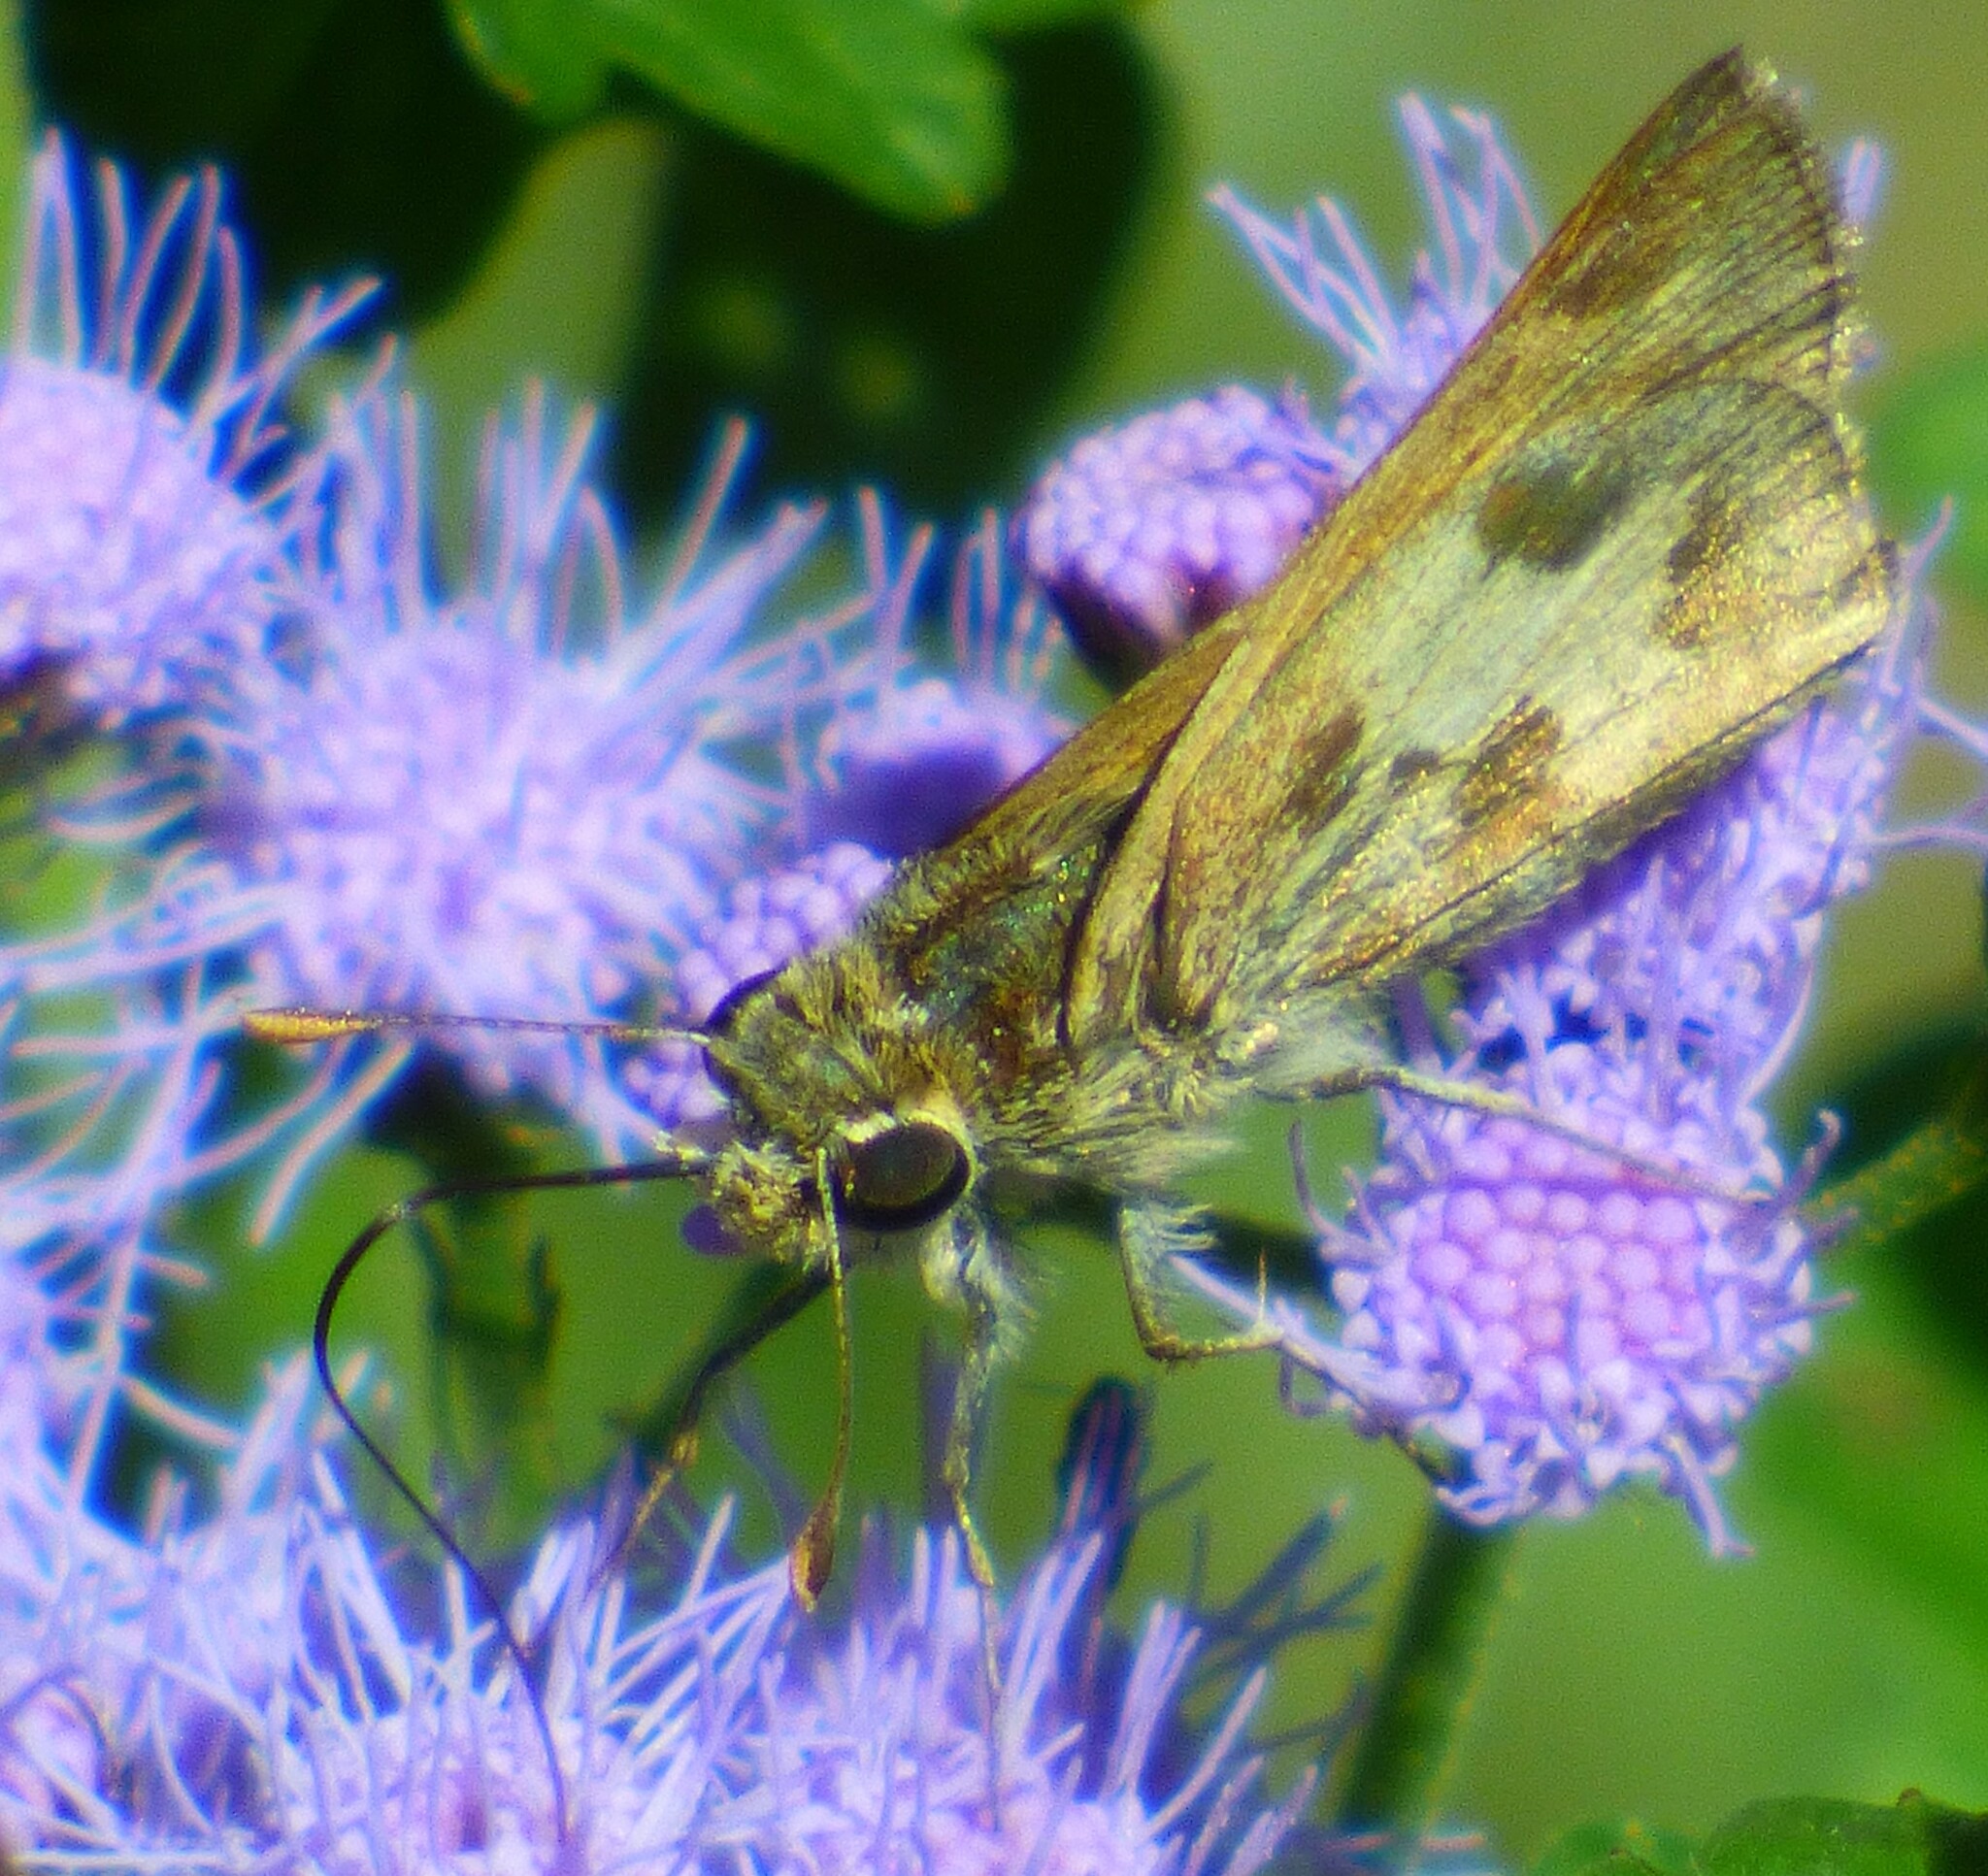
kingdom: Animalia
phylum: Arthropoda
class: Insecta
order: Lepidoptera
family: Hesperiidae
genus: Polites
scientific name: Polites vibex
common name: Whirlabout
